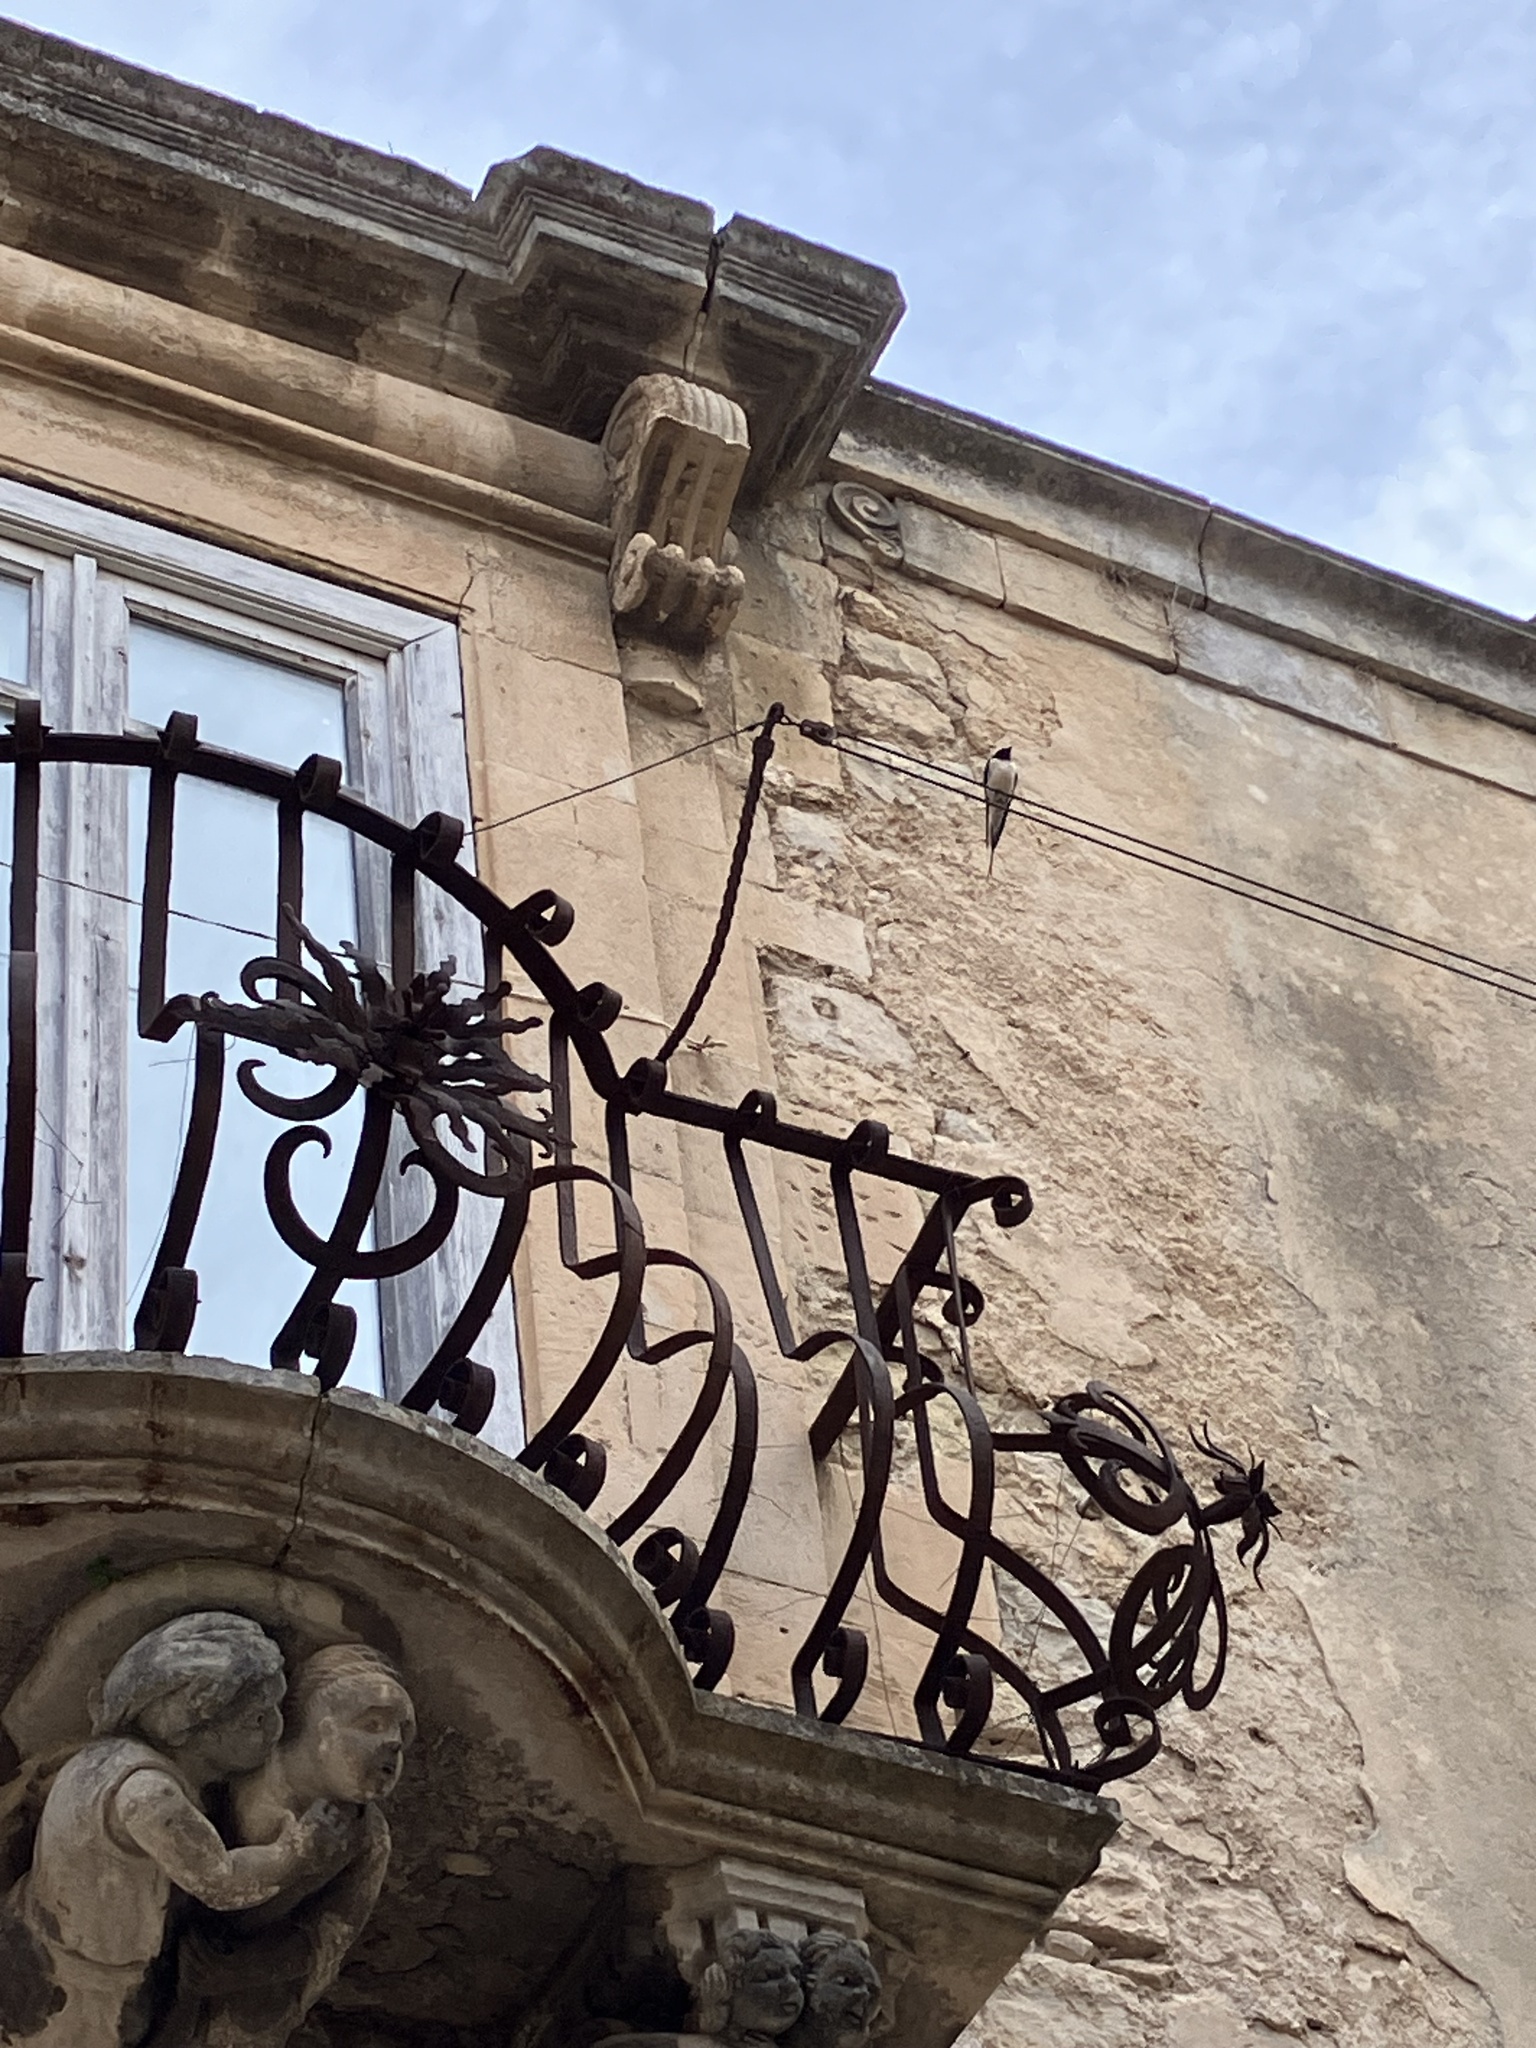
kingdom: Animalia
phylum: Chordata
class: Aves
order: Passeriformes
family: Hirundinidae
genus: Hirundo
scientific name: Hirundo rustica
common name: Barn swallow
